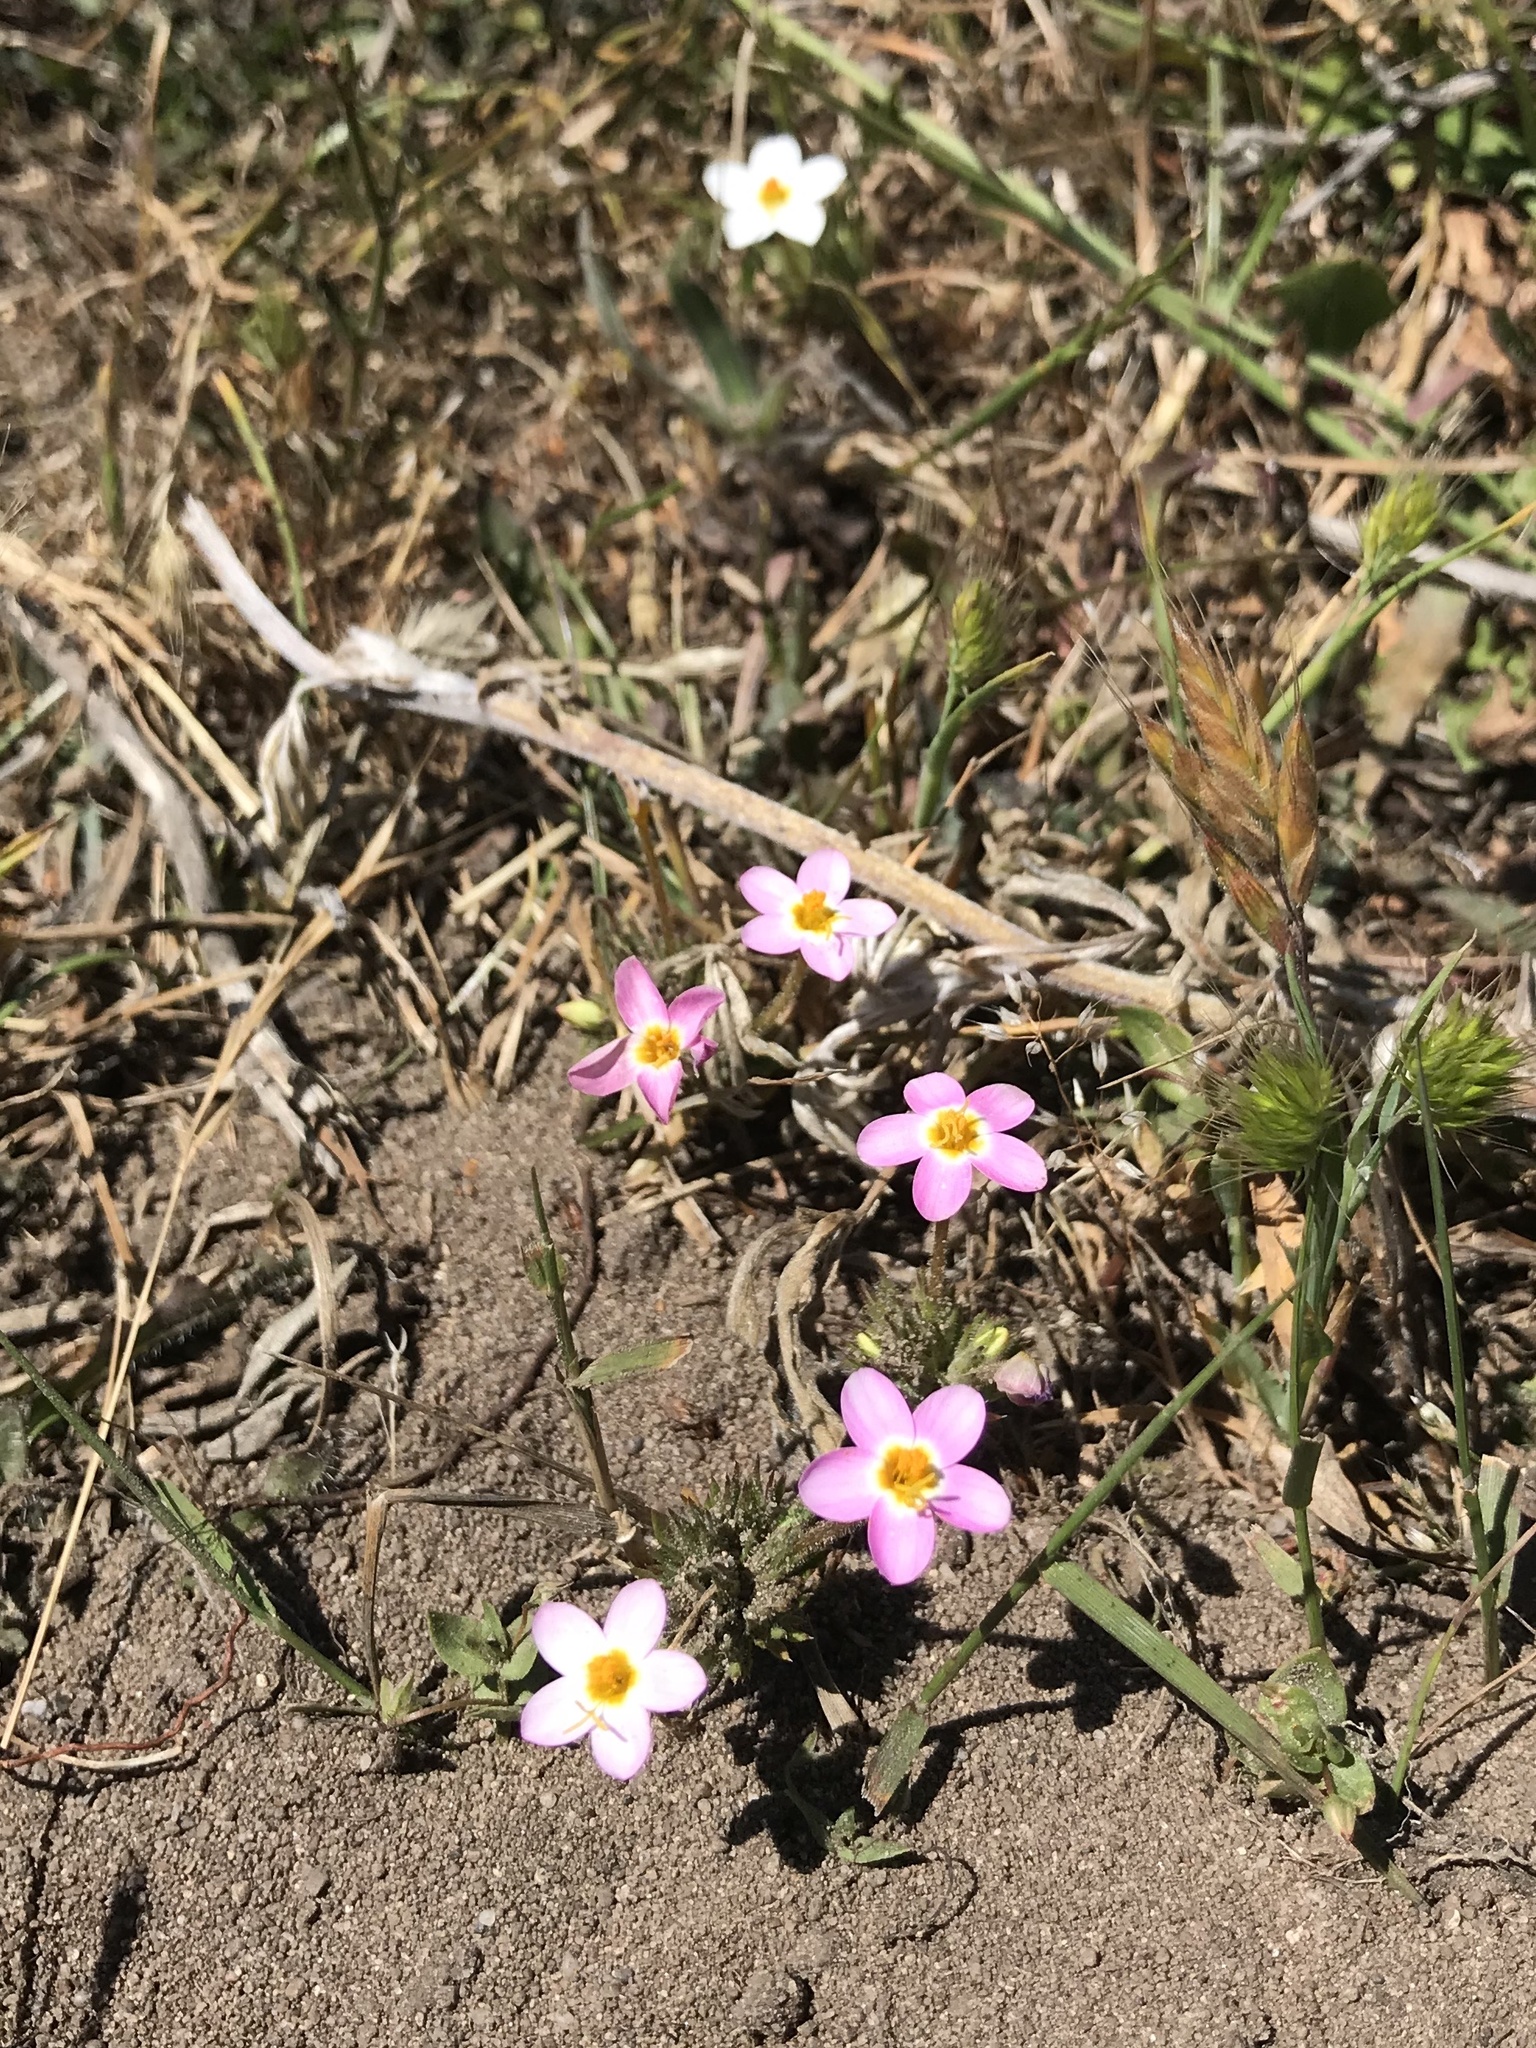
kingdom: Plantae
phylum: Tracheophyta
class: Magnoliopsida
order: Ericales
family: Polemoniaceae
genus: Leptosiphon
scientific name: Leptosiphon parviflorus
